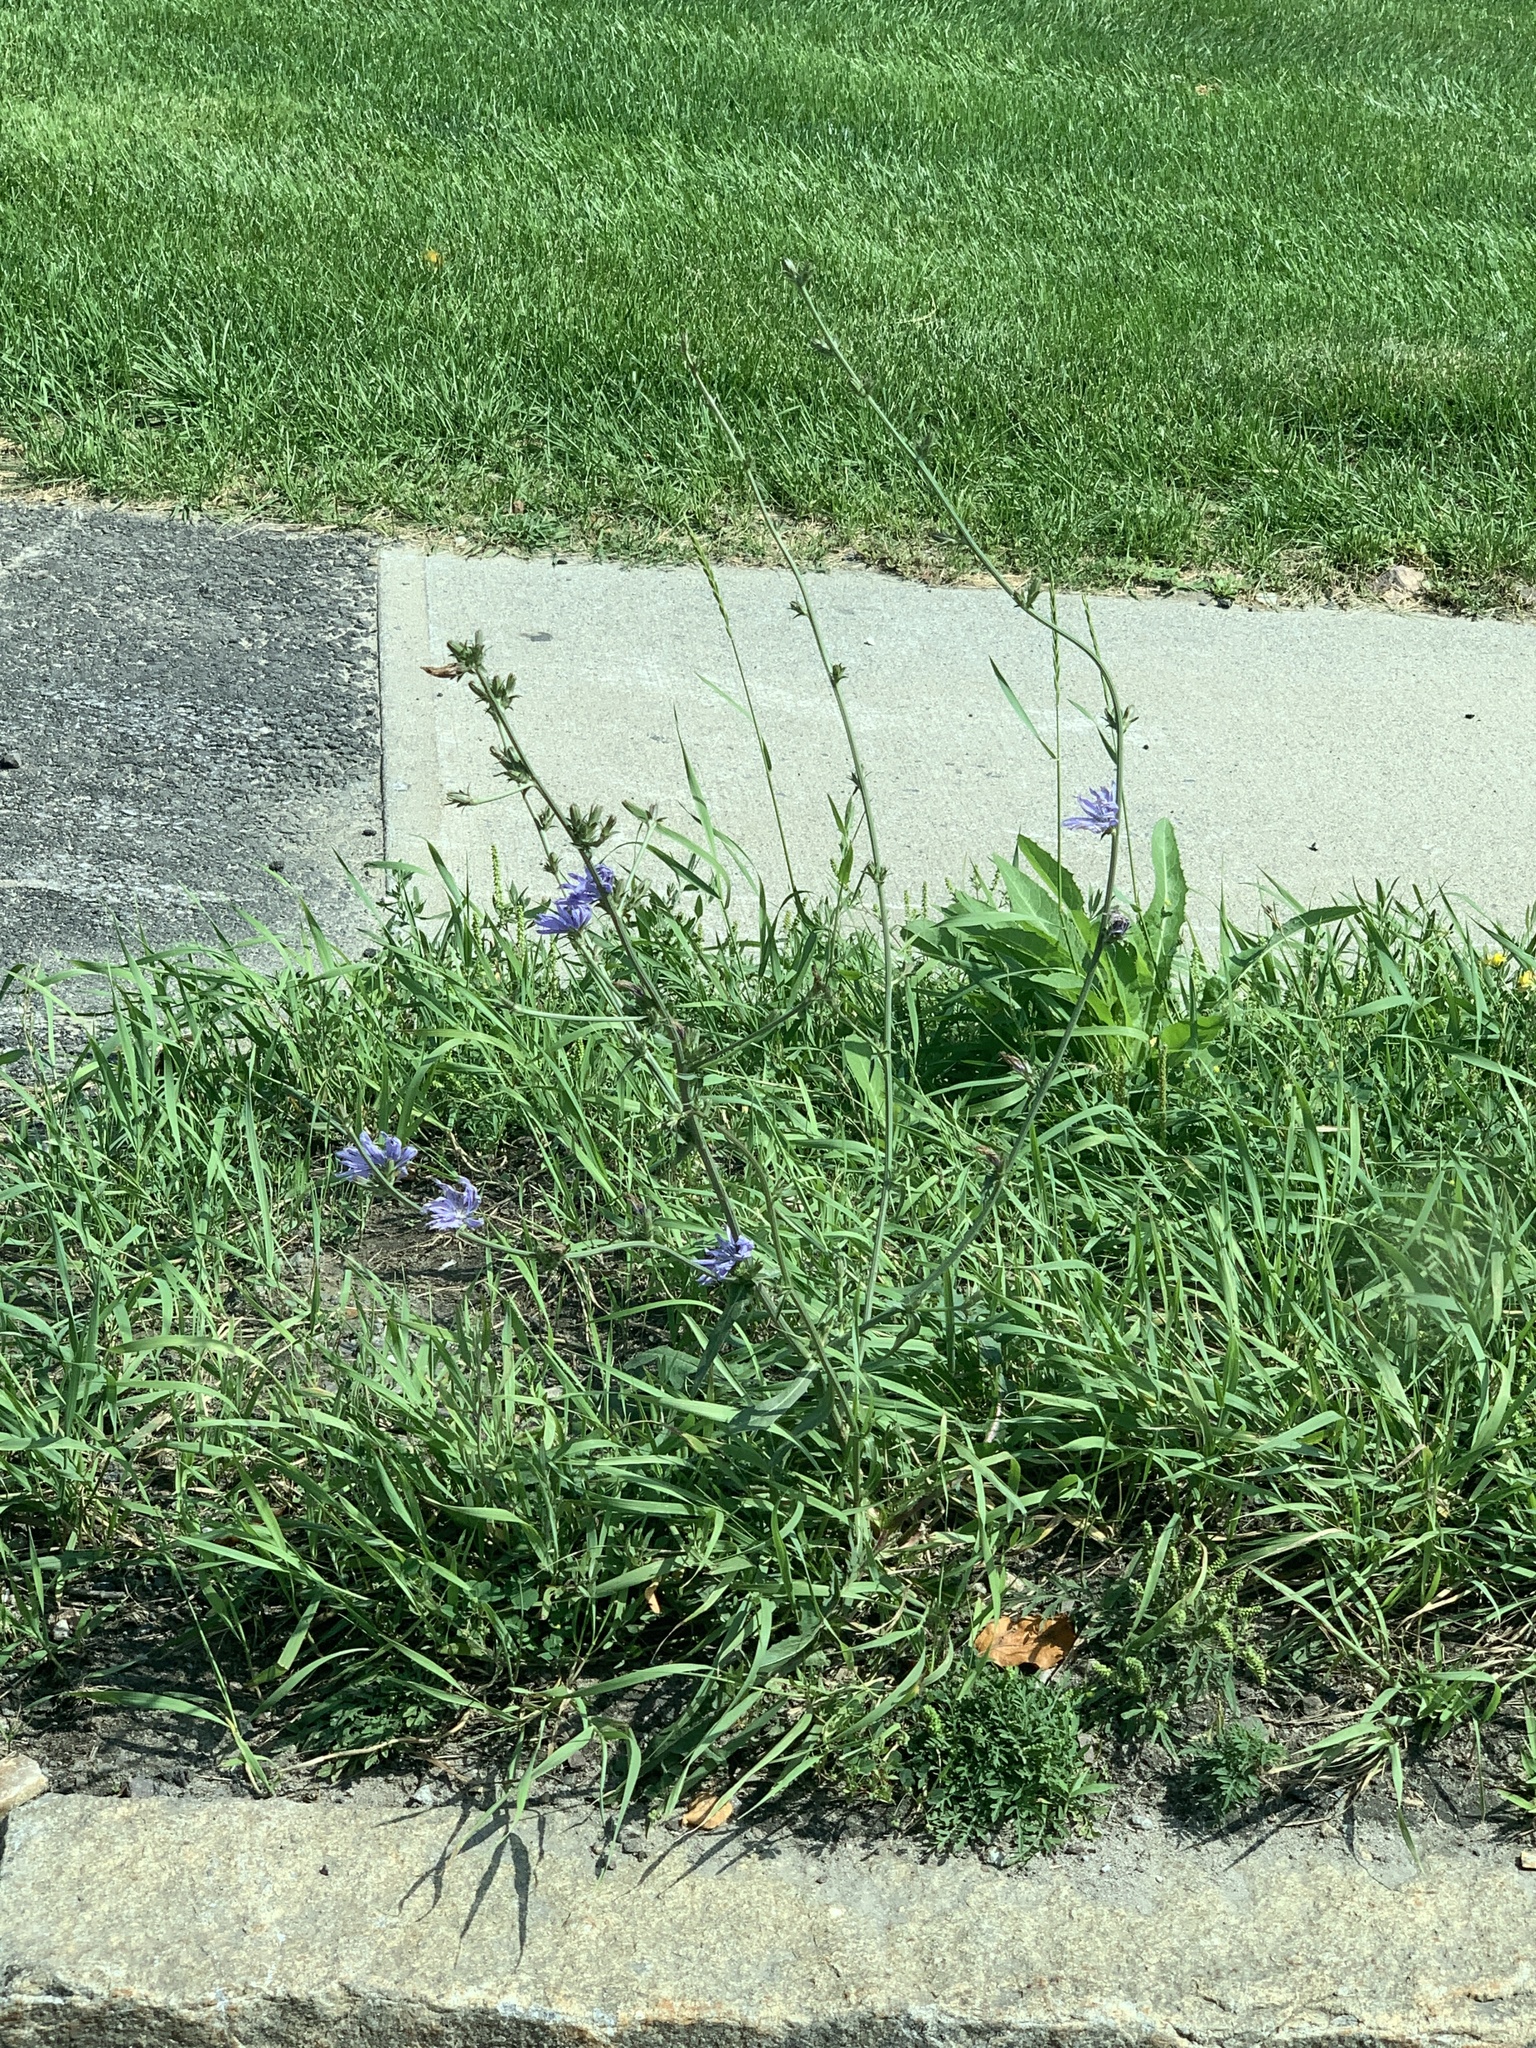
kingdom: Plantae
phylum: Tracheophyta
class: Magnoliopsida
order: Asterales
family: Asteraceae
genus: Cichorium
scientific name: Cichorium intybus
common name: Chicory
